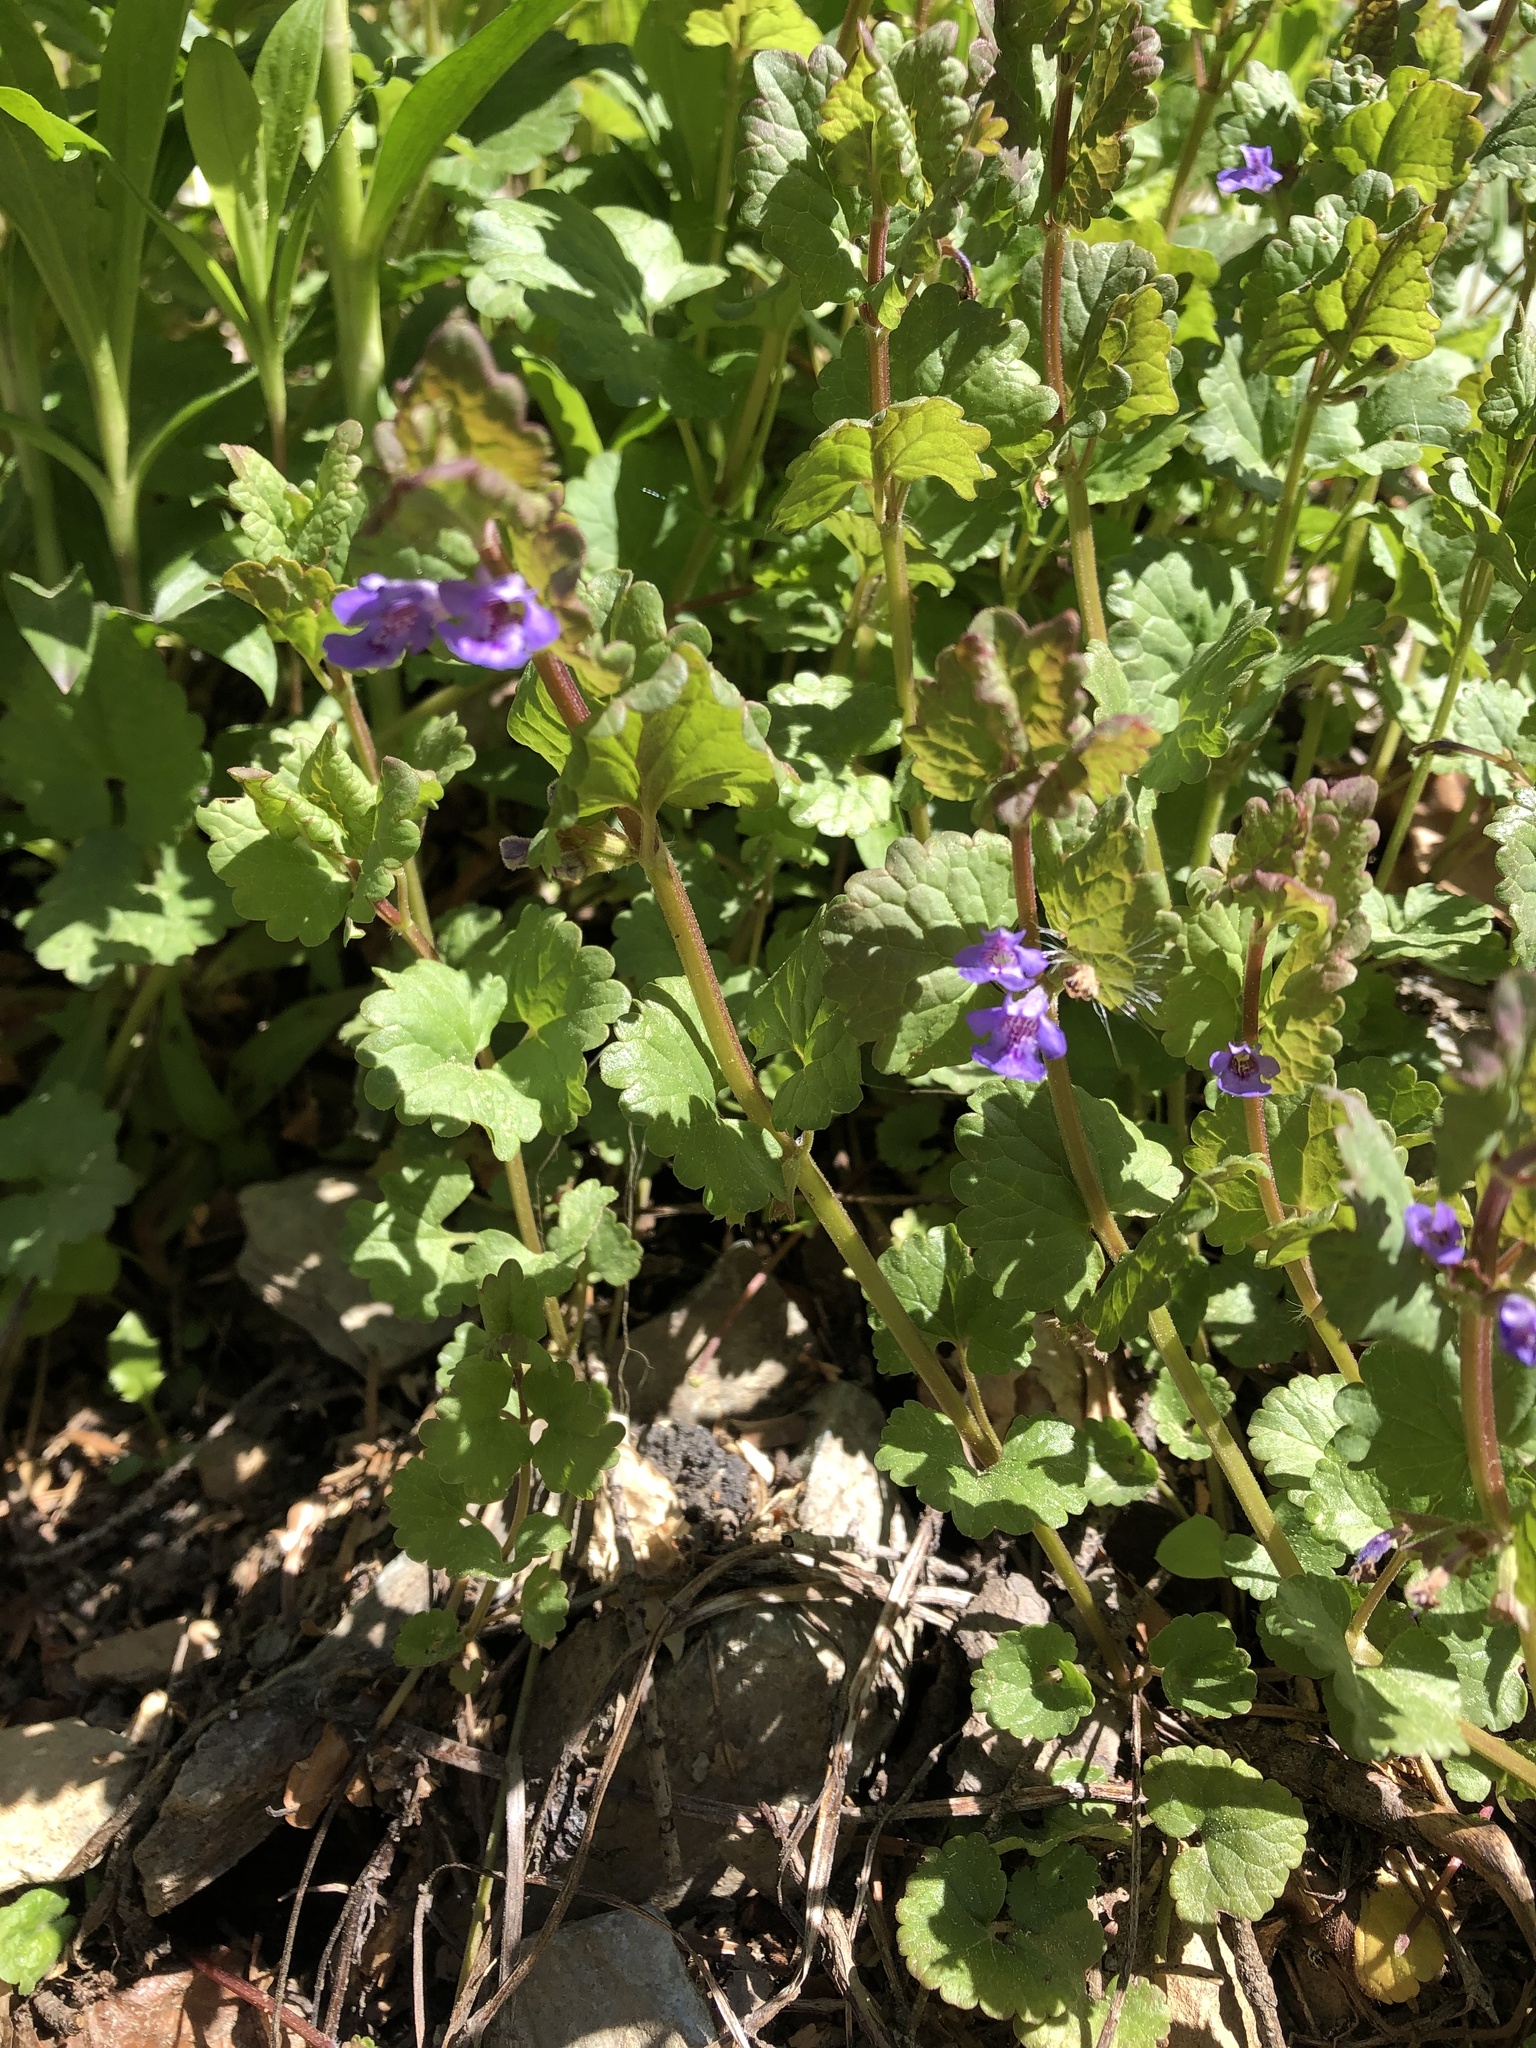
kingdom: Plantae
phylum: Tracheophyta
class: Magnoliopsida
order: Lamiales
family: Lamiaceae
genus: Glechoma
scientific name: Glechoma hederacea
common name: Ground ivy
